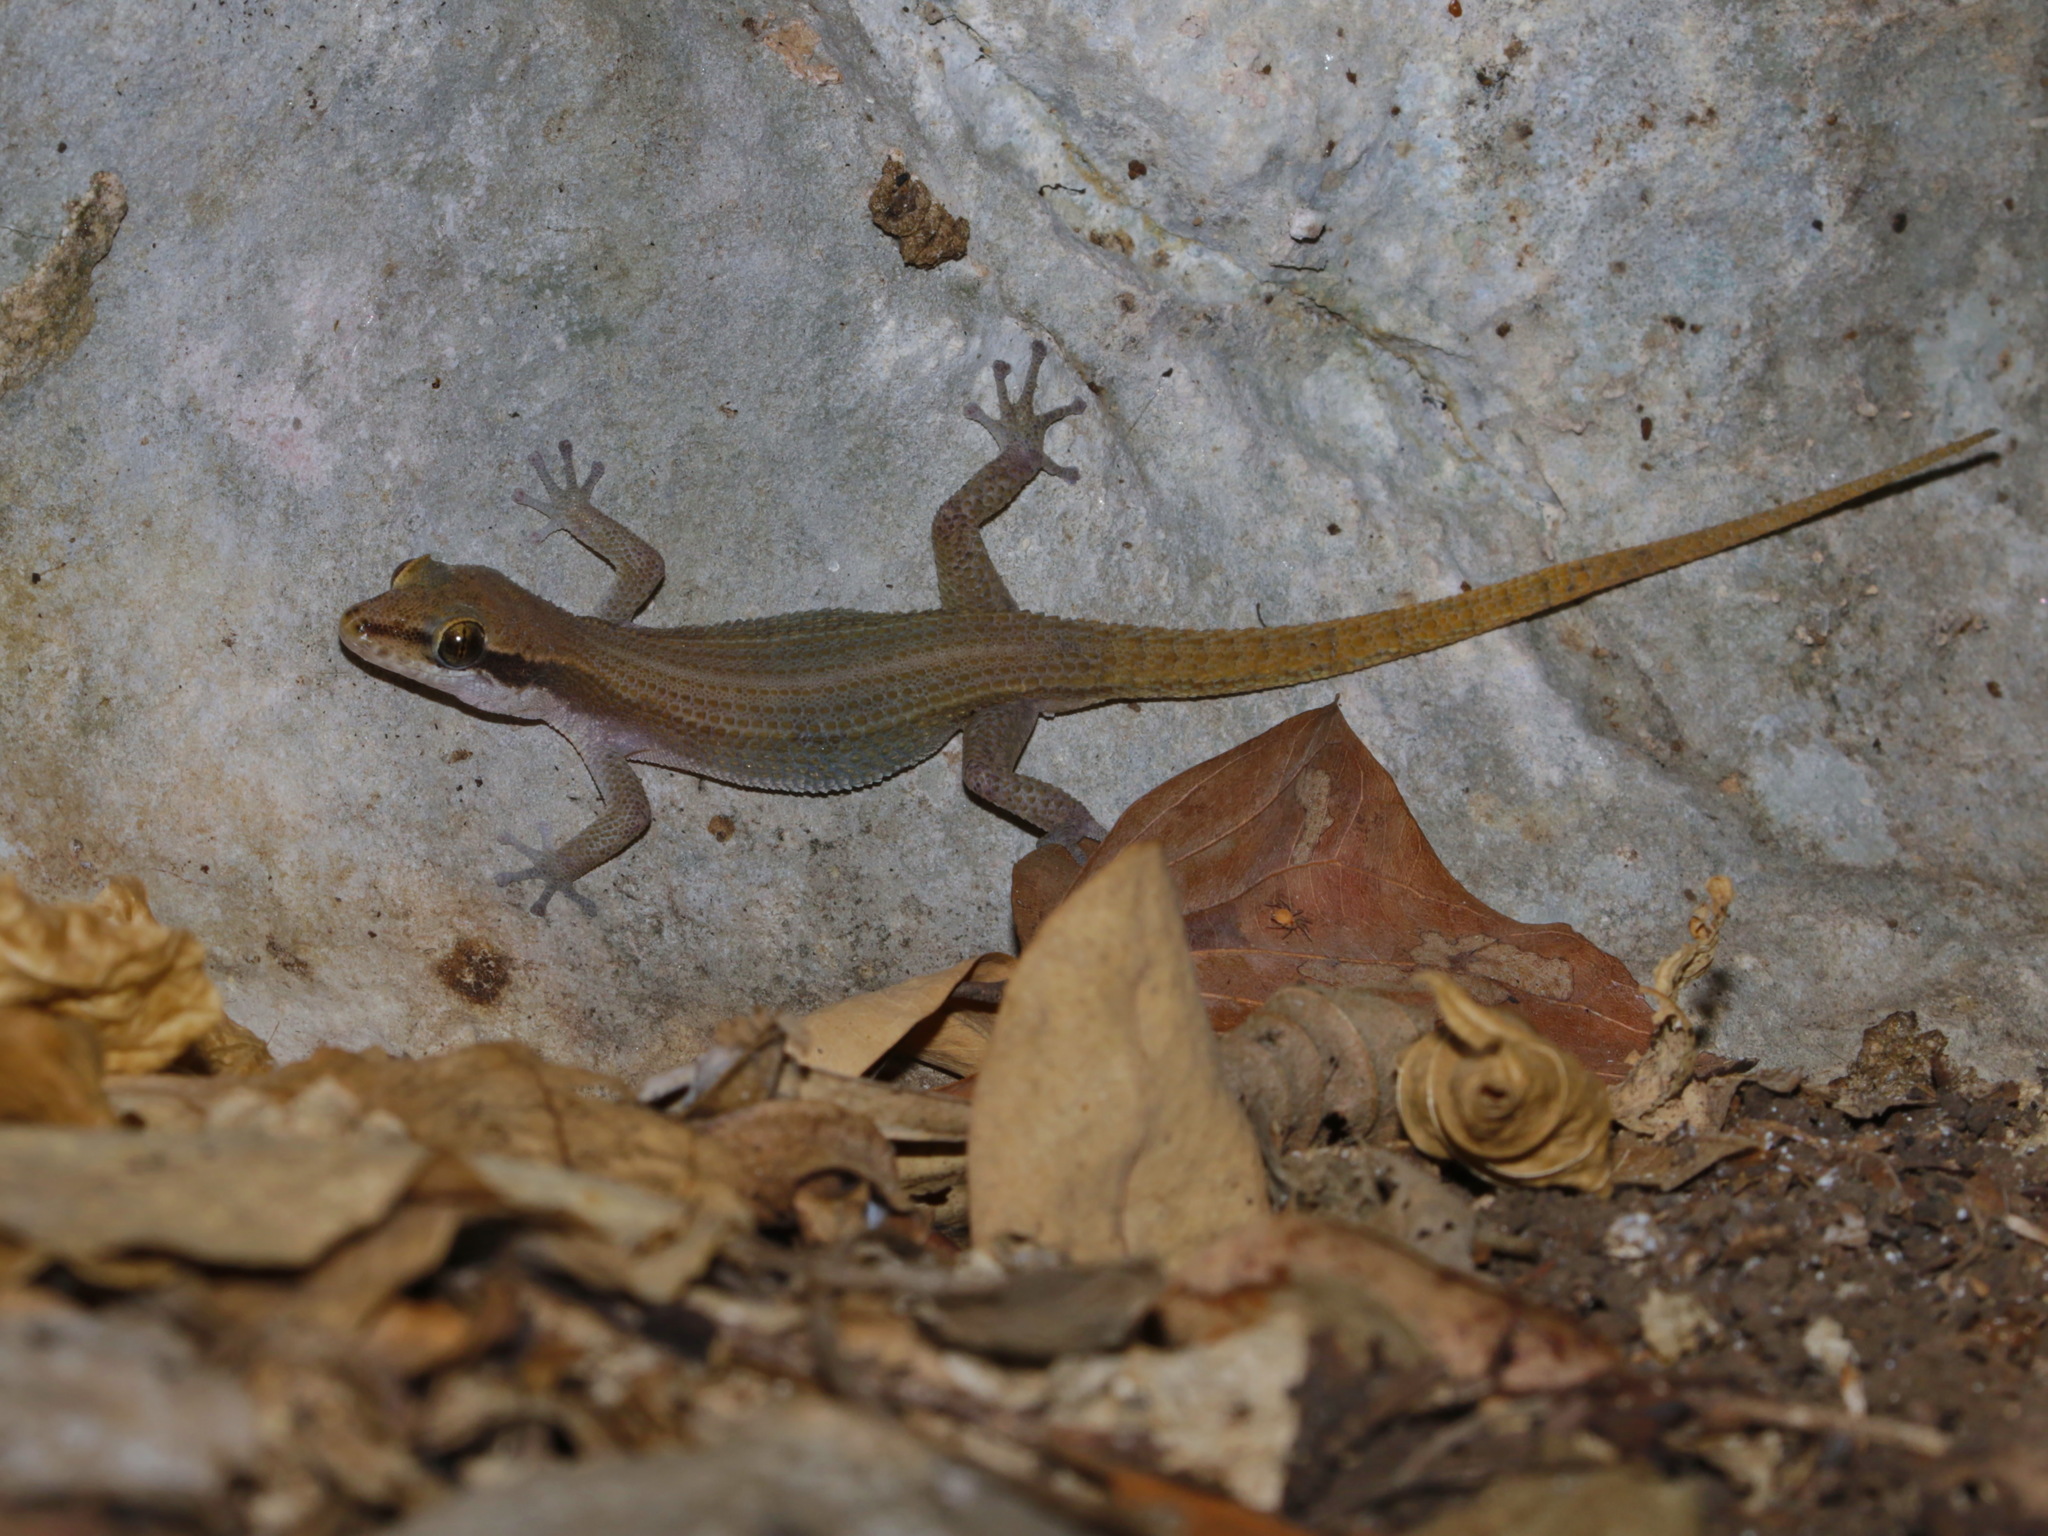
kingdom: Animalia
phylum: Chordata
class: Squamata
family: Gekkonidae
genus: Dixonius
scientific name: Dixonius melanostictus
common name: Black-spotted leaf-toed gecko
